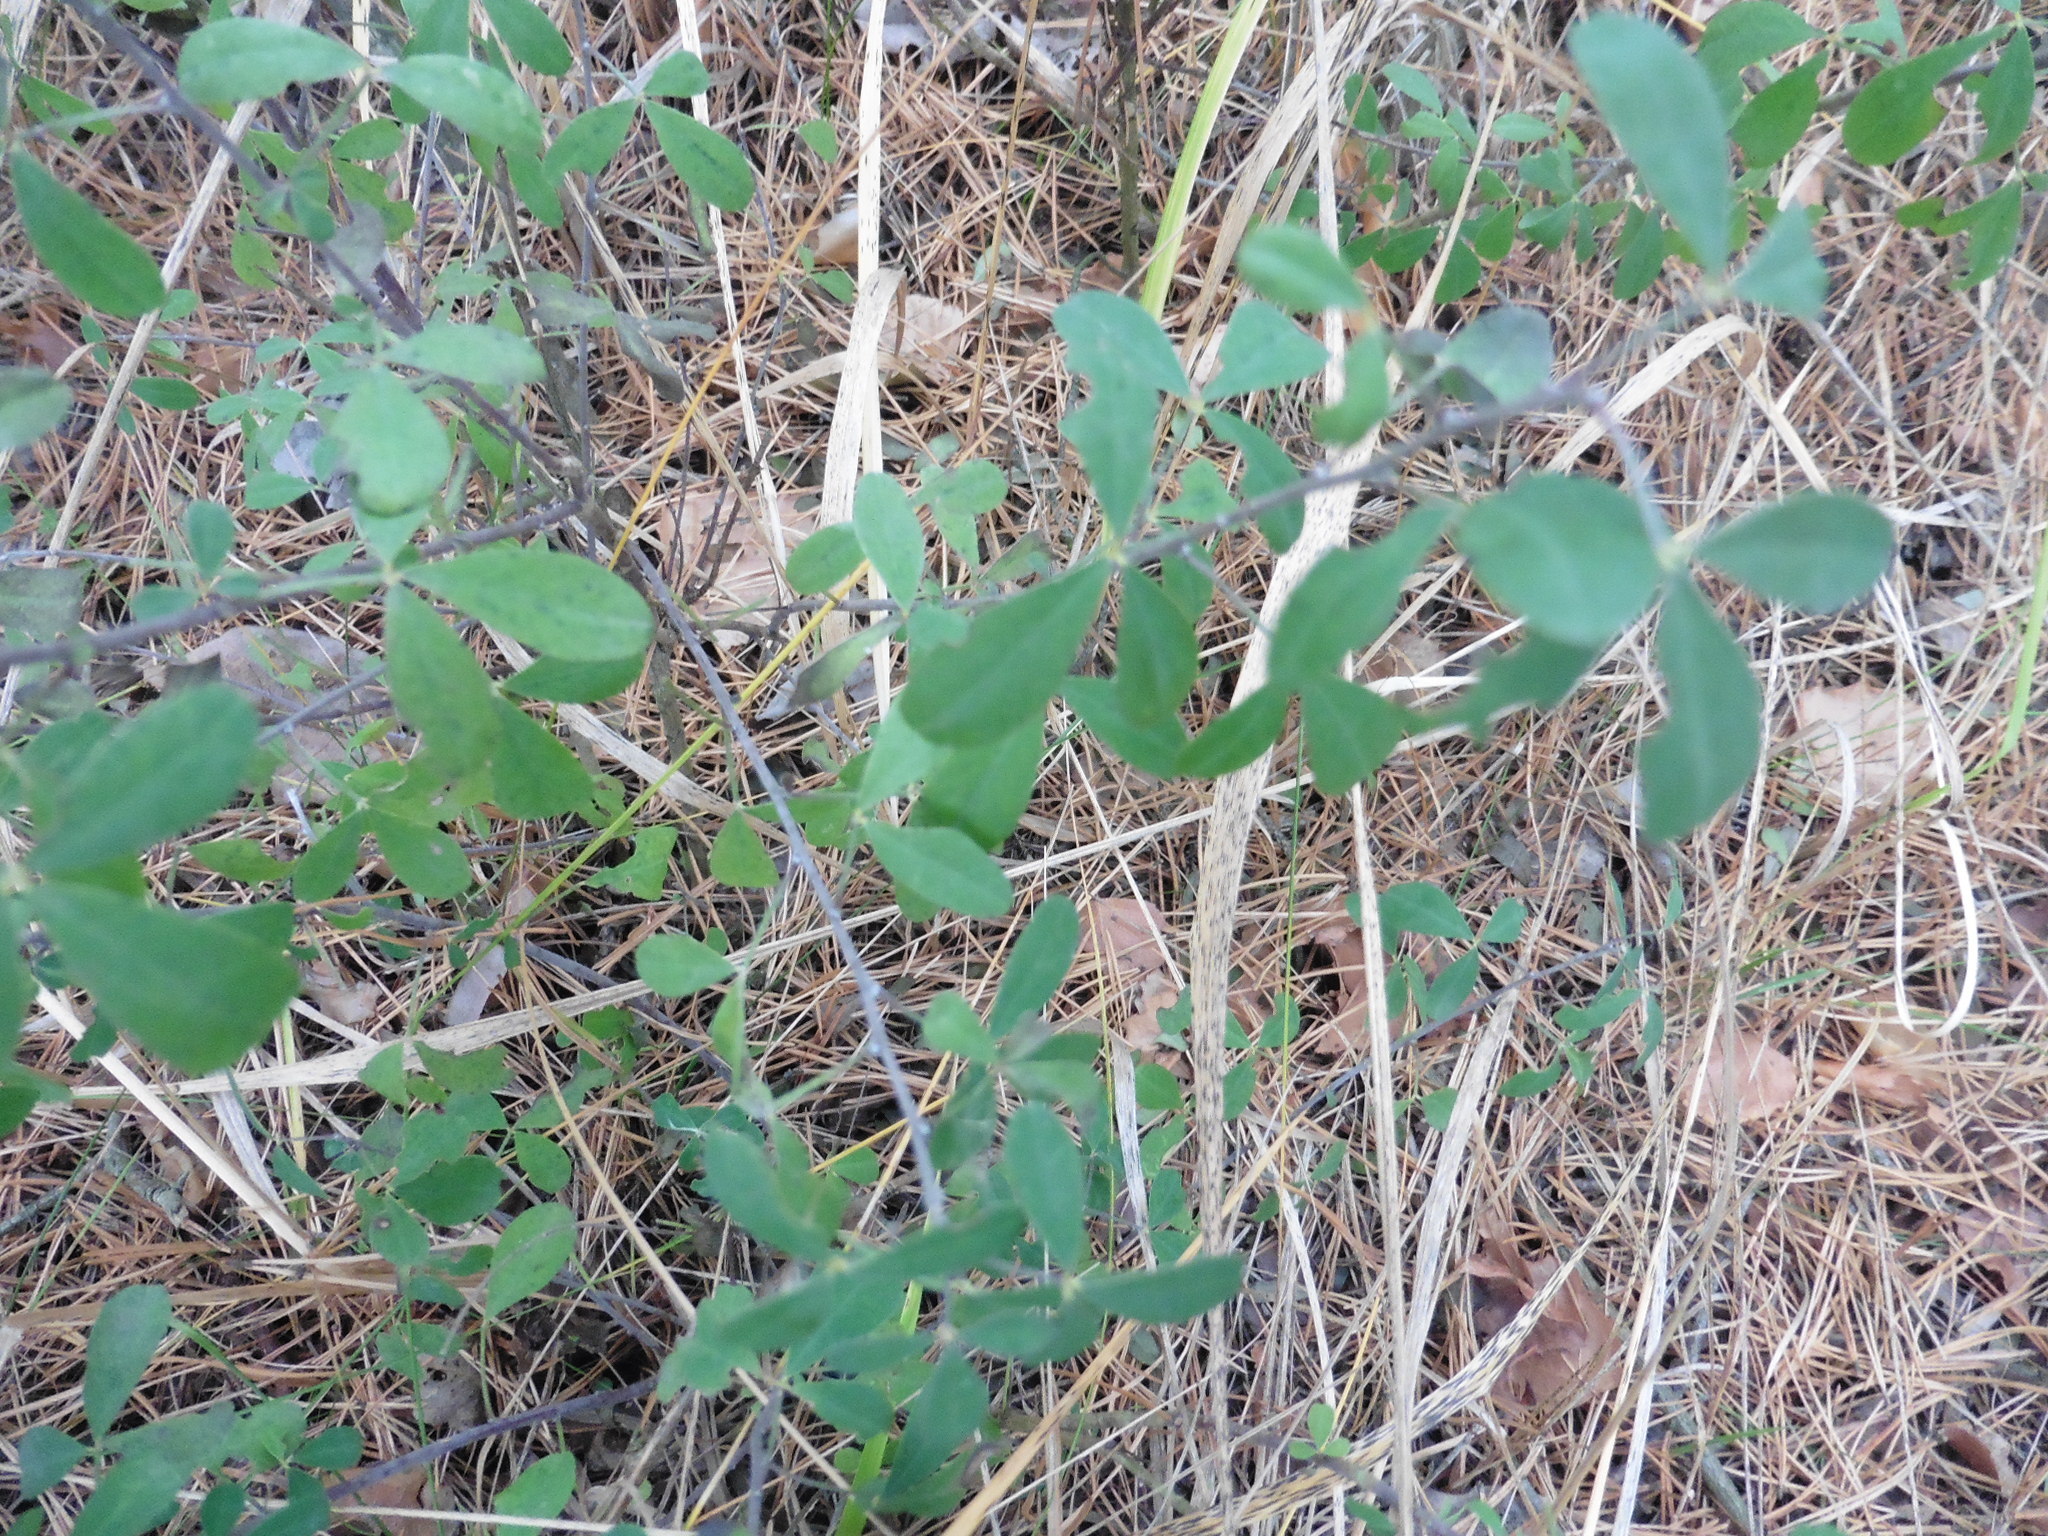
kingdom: Plantae
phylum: Tracheophyta
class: Magnoliopsida
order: Fabales
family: Fabaceae
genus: Chamaecytisus
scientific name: Chamaecytisus ruthenicus
